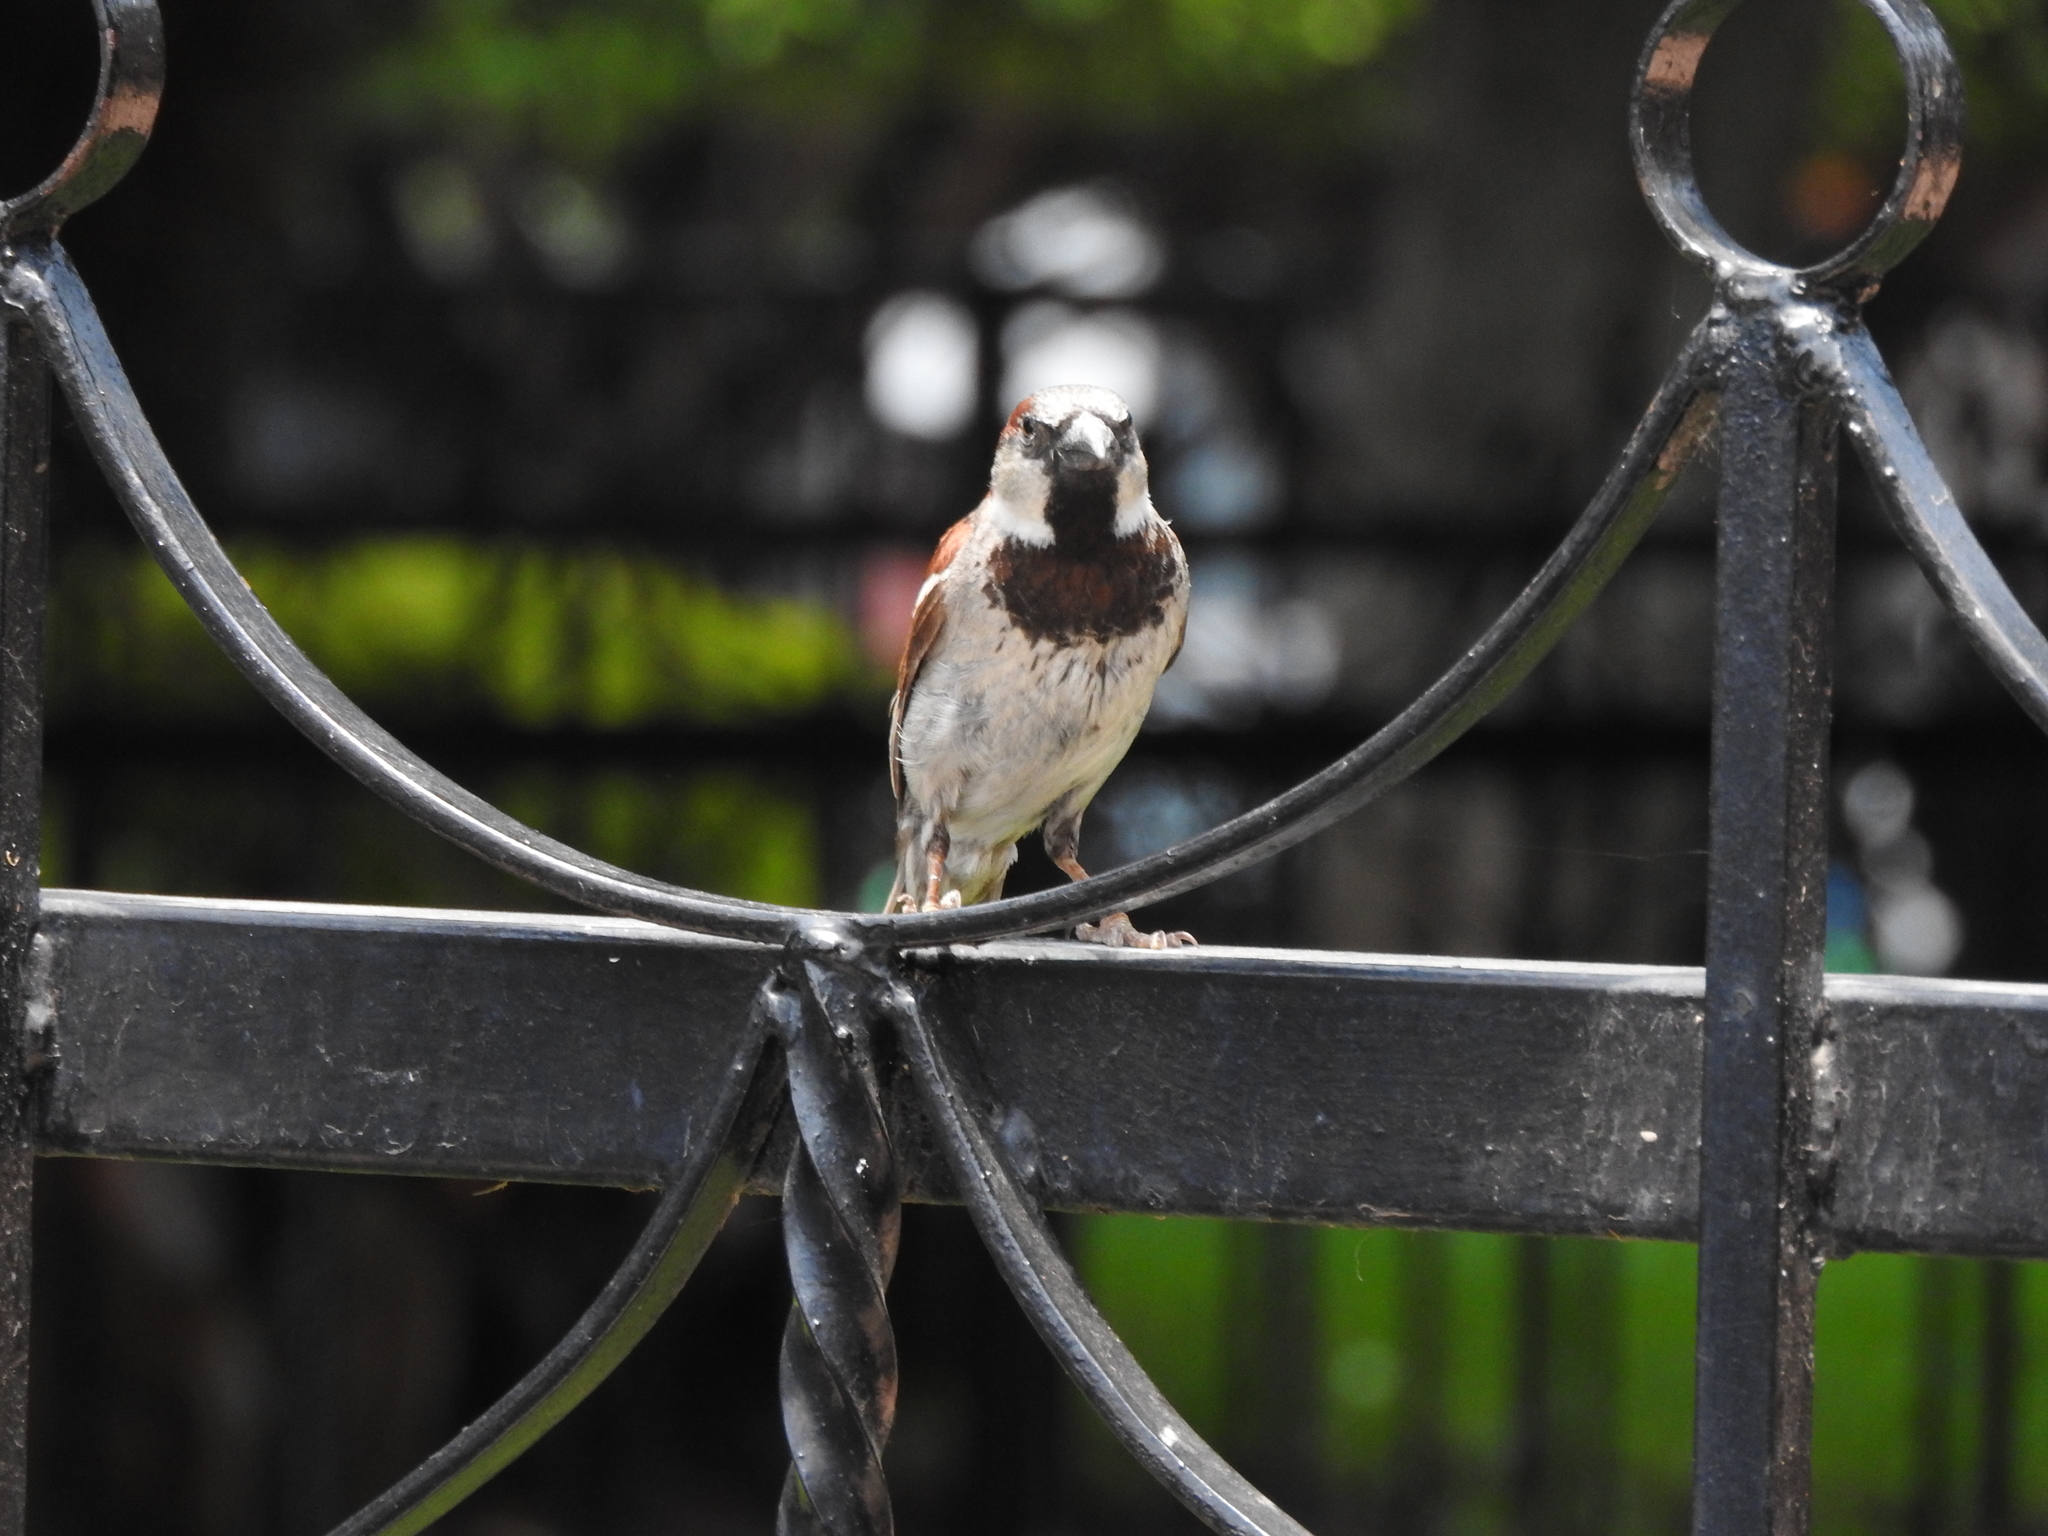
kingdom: Animalia
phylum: Chordata
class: Aves
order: Passeriformes
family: Passeridae
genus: Passer
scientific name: Passer domesticus
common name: House sparrow
